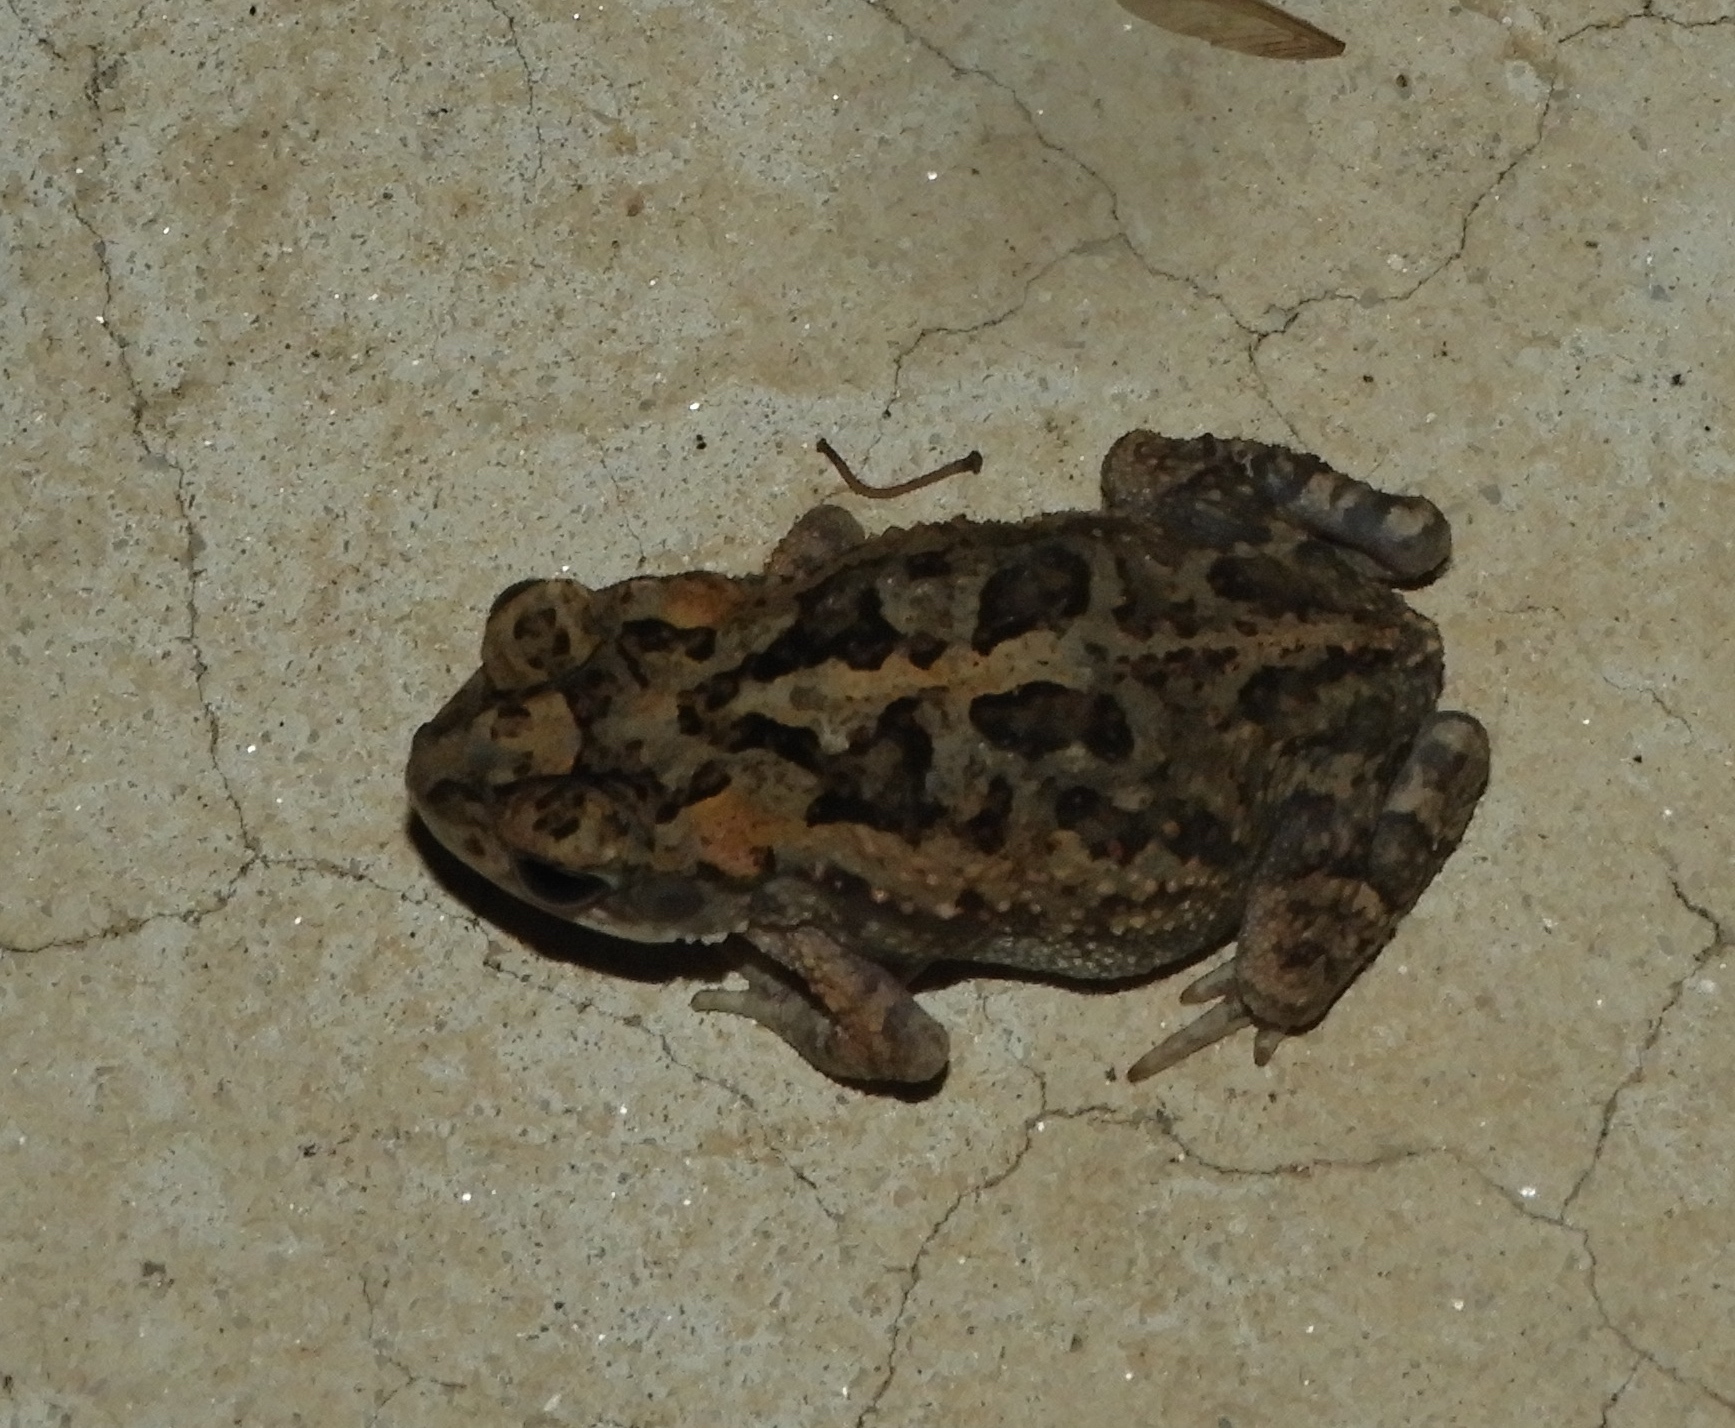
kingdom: Animalia
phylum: Chordata
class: Amphibia
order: Anura
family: Bufonidae
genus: Incilius
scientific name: Incilius mazatlanensis
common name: Sinaloa toad
